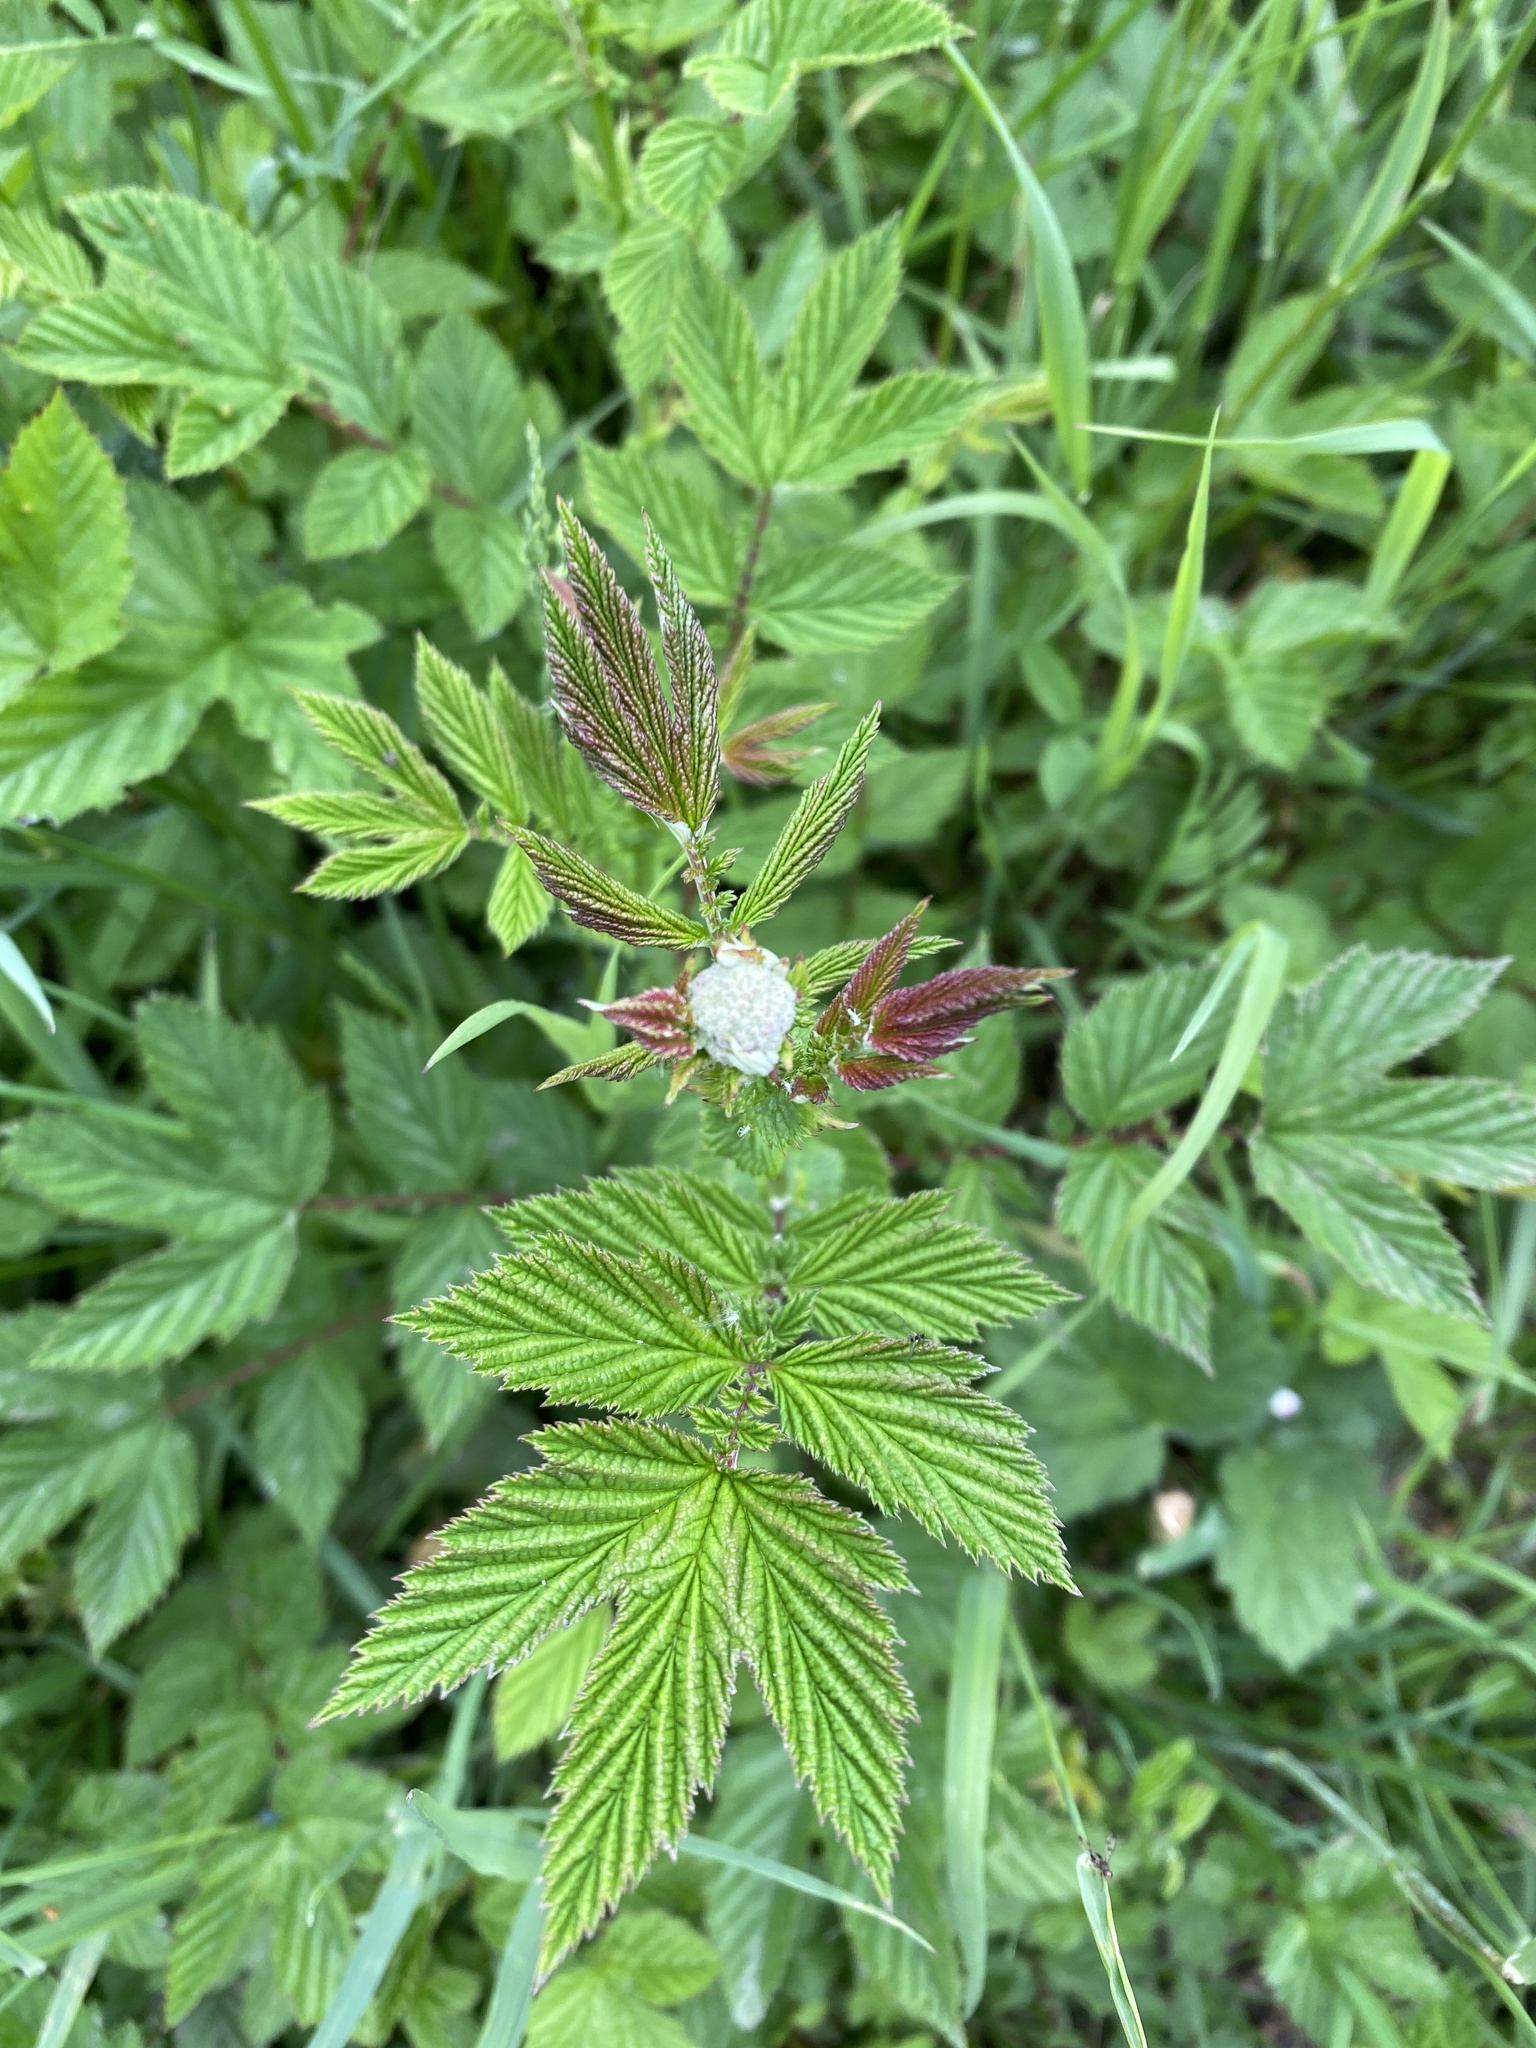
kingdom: Plantae
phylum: Tracheophyta
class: Magnoliopsida
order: Rosales
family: Rosaceae
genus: Filipendula
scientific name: Filipendula ulmaria
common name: Meadowsweet
